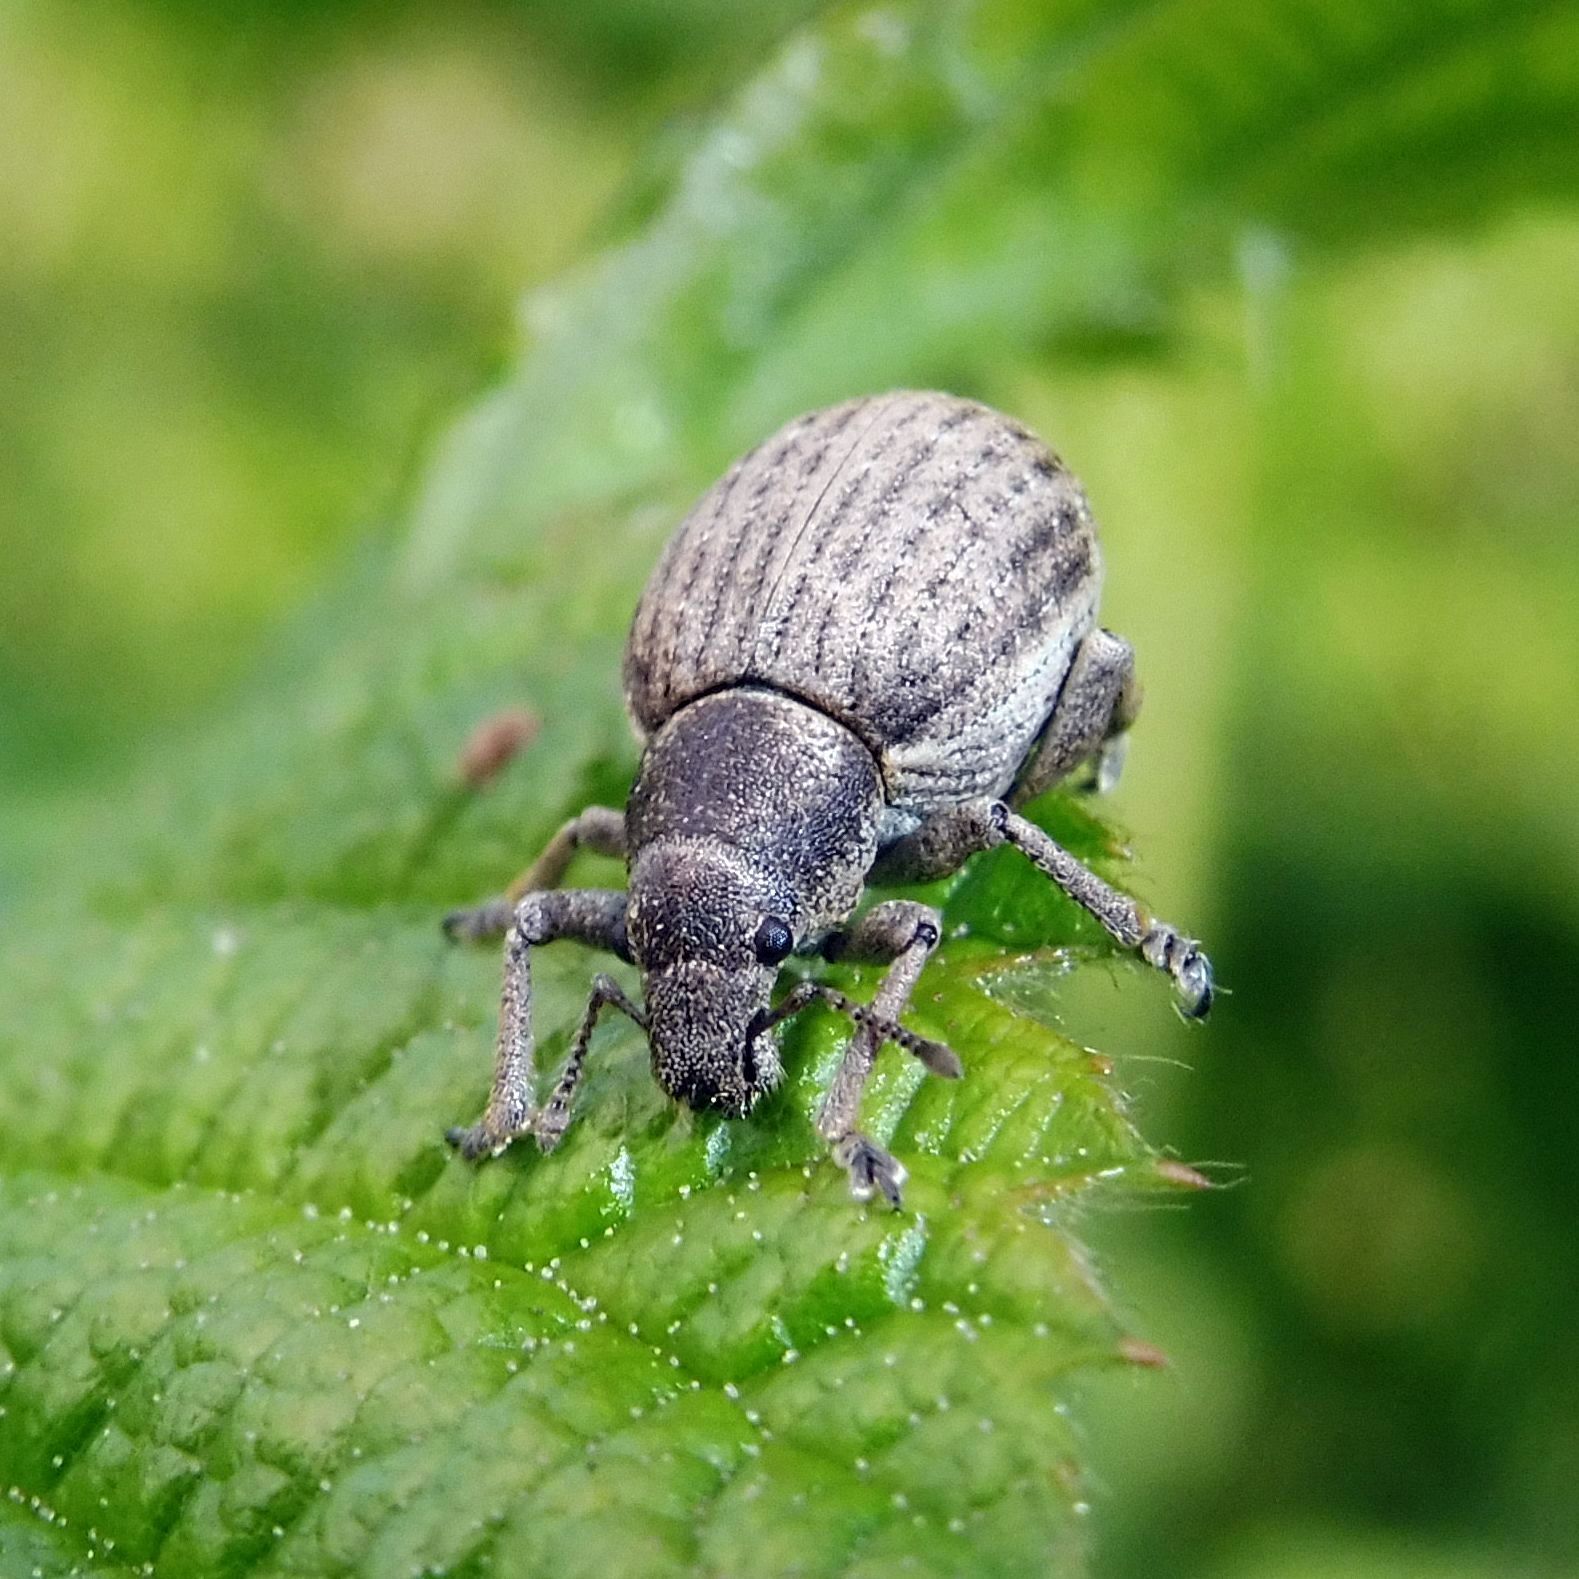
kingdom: Animalia
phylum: Arthropoda
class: Insecta
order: Coleoptera
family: Curculionidae
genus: Attactagenus
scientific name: Attactagenus plumbeus
